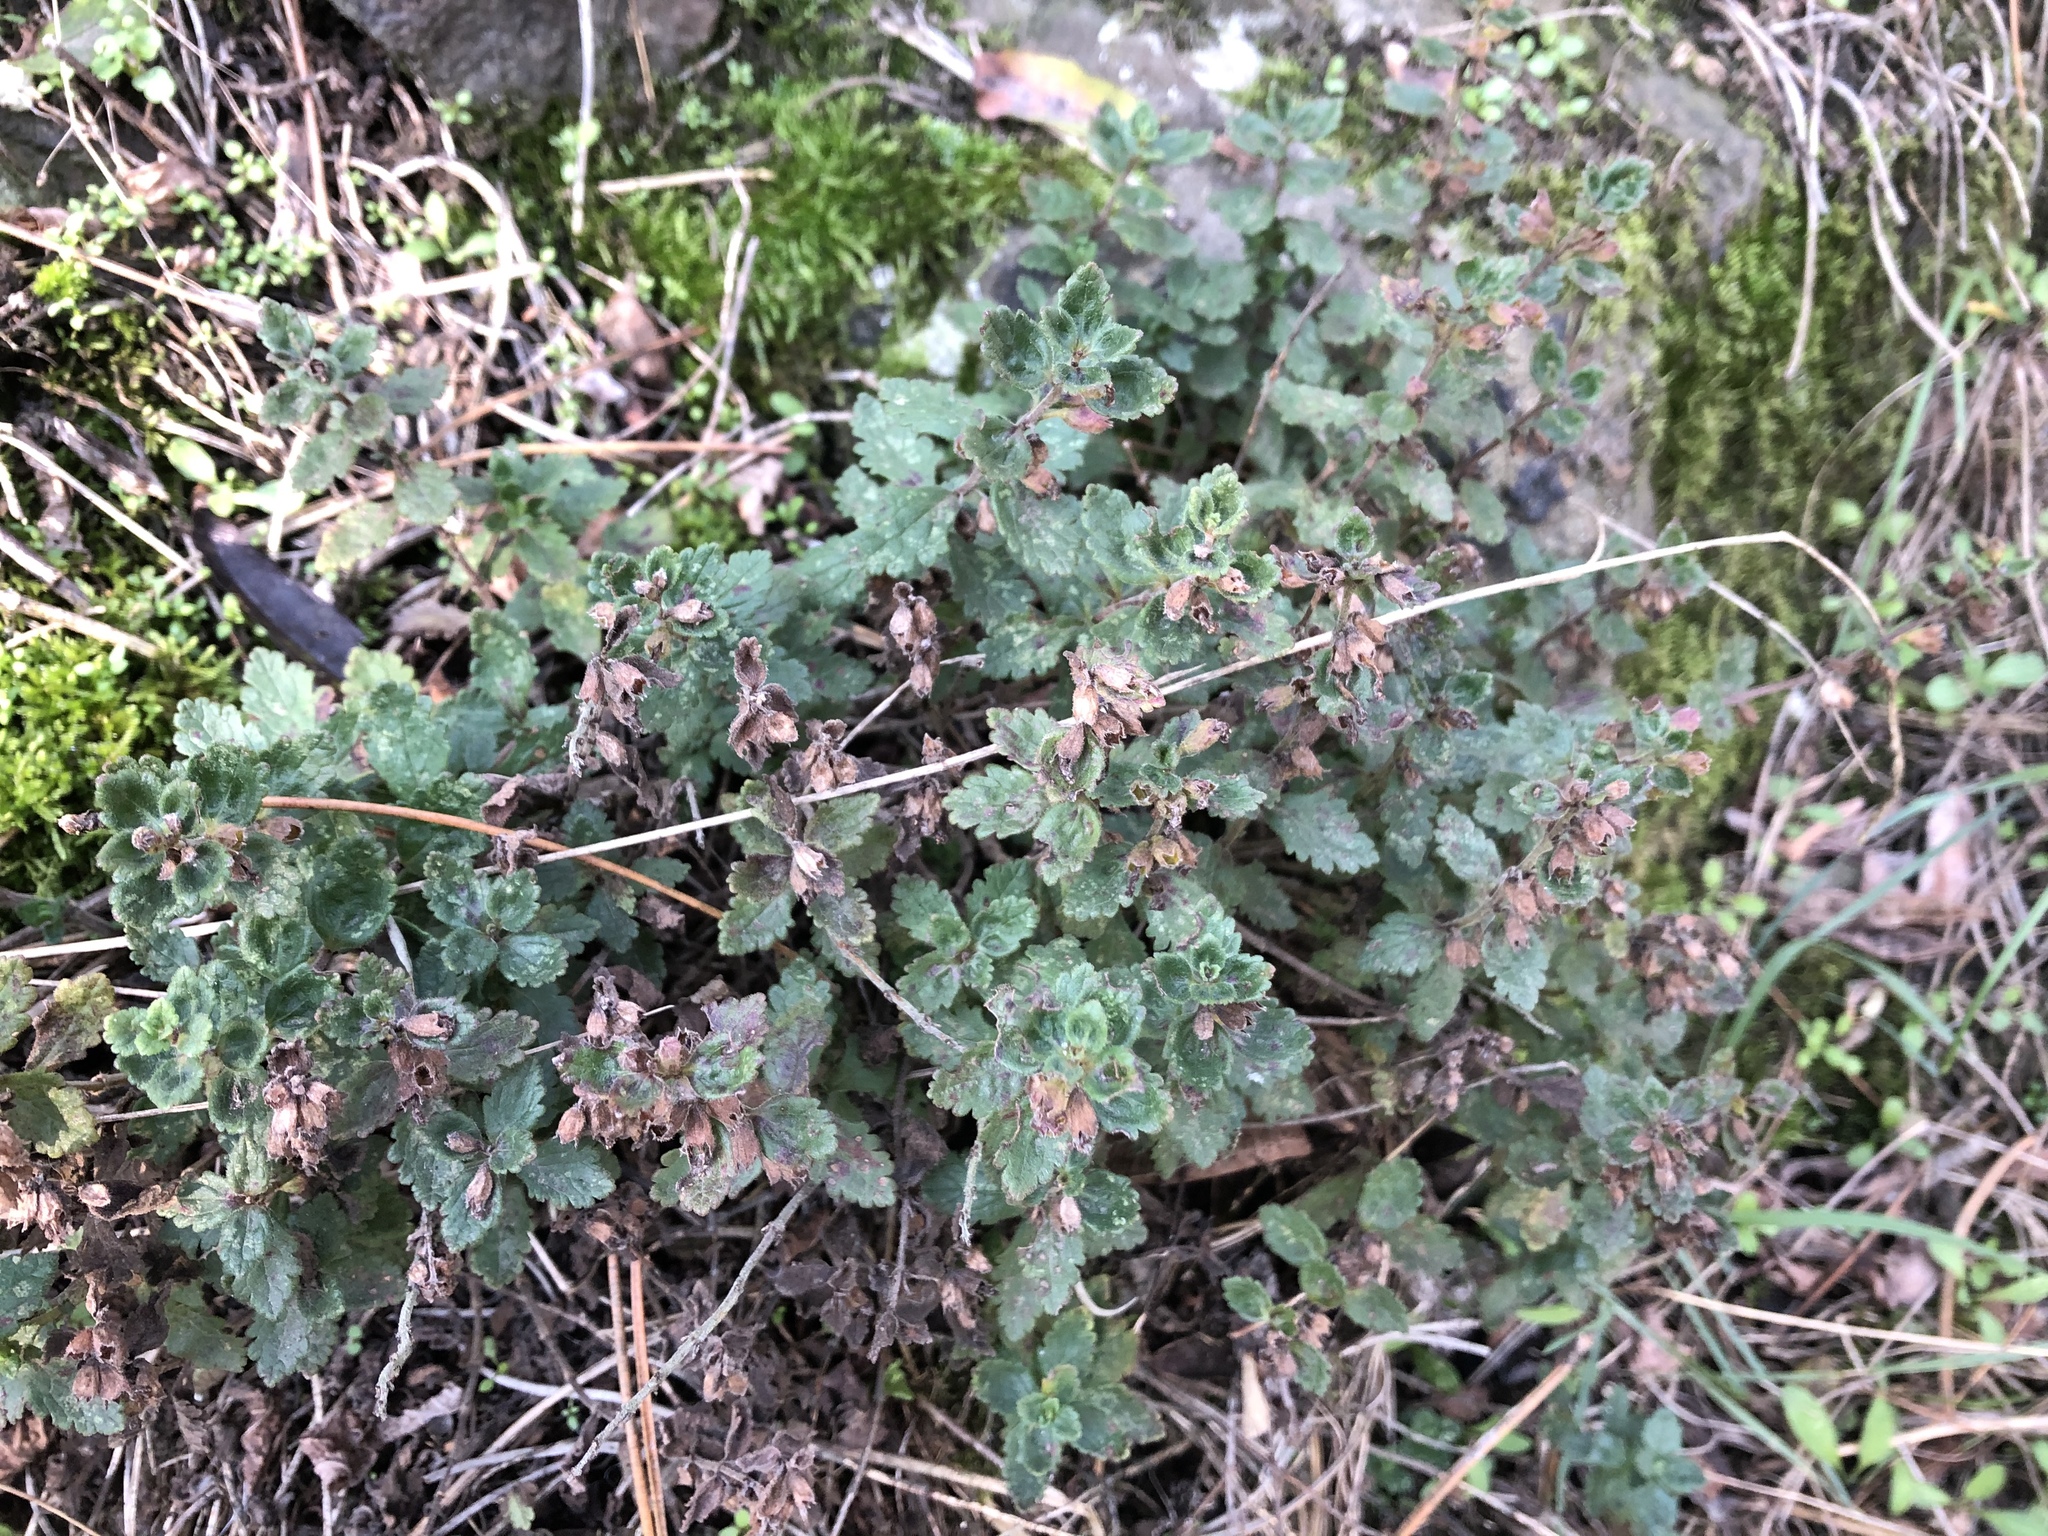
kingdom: Plantae
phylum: Tracheophyta
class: Magnoliopsida
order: Lamiales
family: Lamiaceae
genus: Teucrium
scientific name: Teucrium chamaedrys
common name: Wall germander
